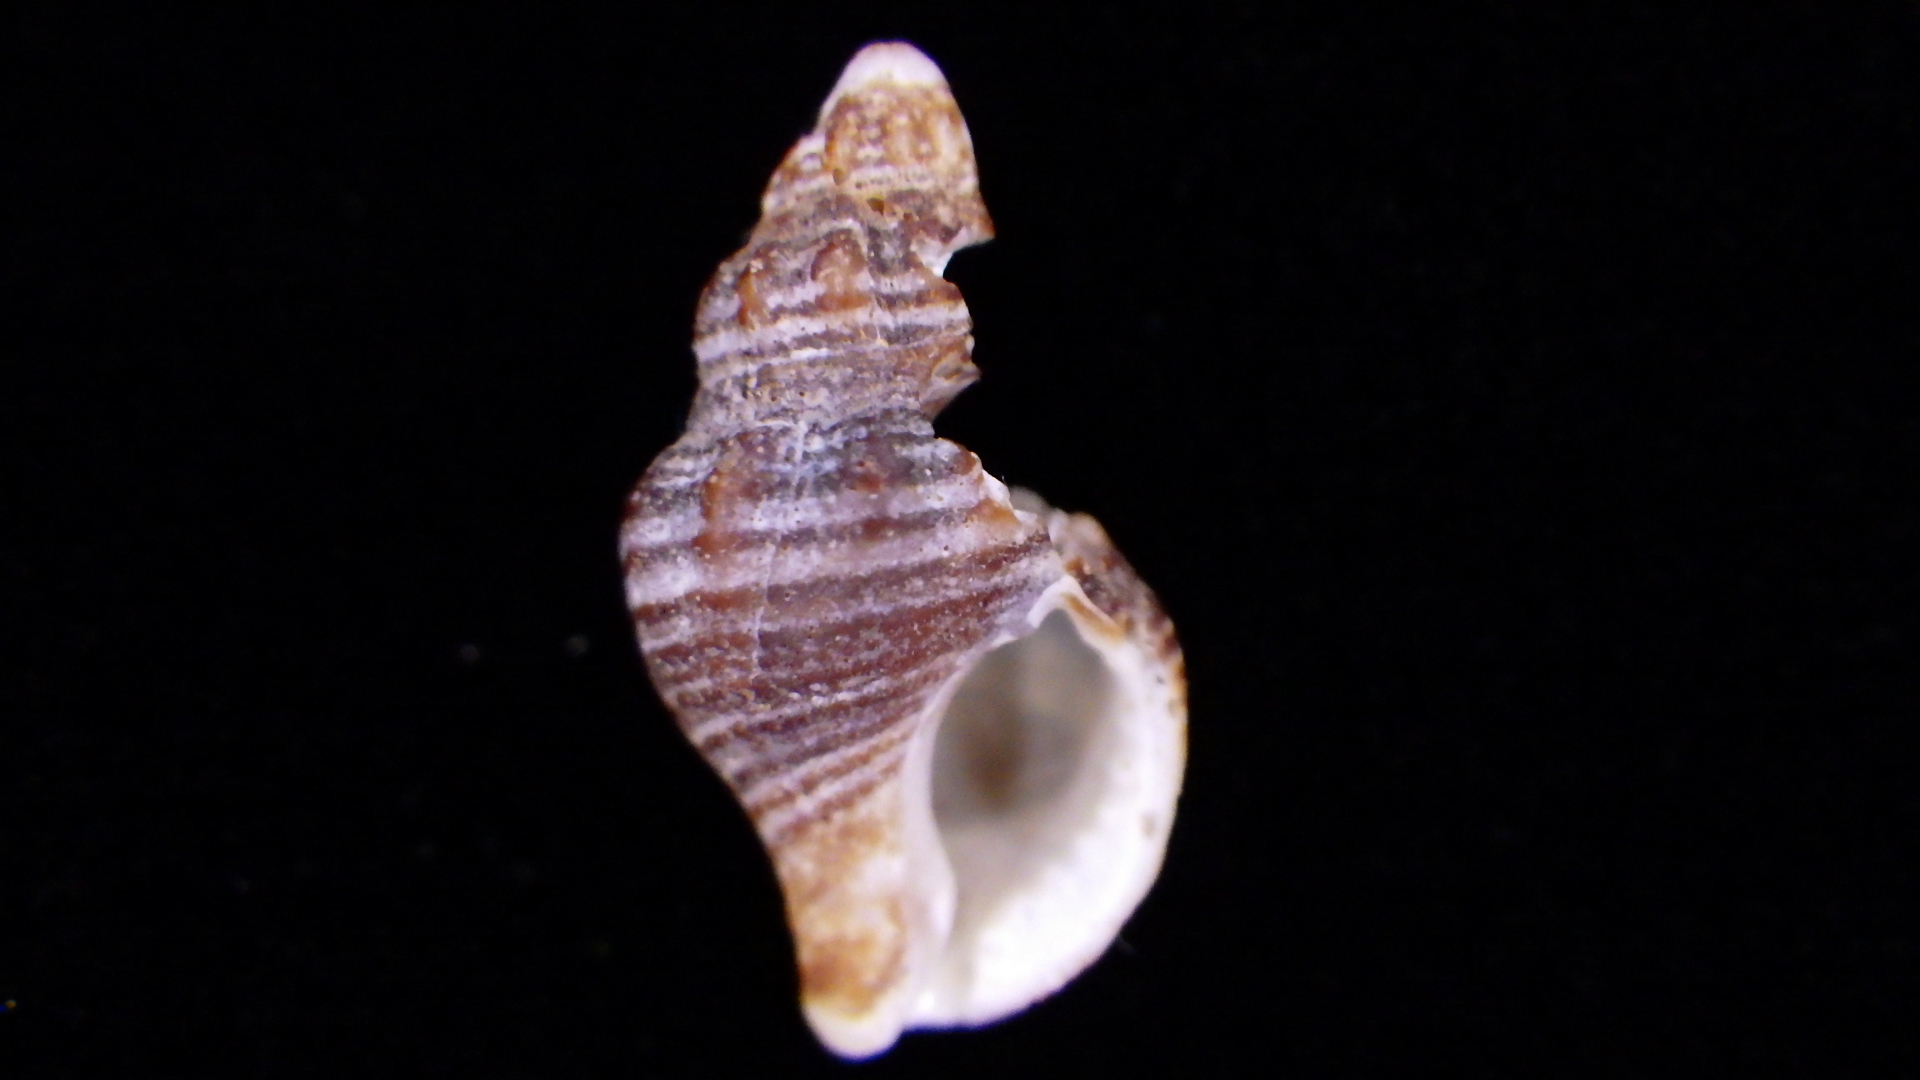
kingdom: Animalia
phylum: Mollusca
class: Gastropoda
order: Neogastropoda
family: Tudiclidae
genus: Buccinulum
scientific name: Buccinulum robustum
